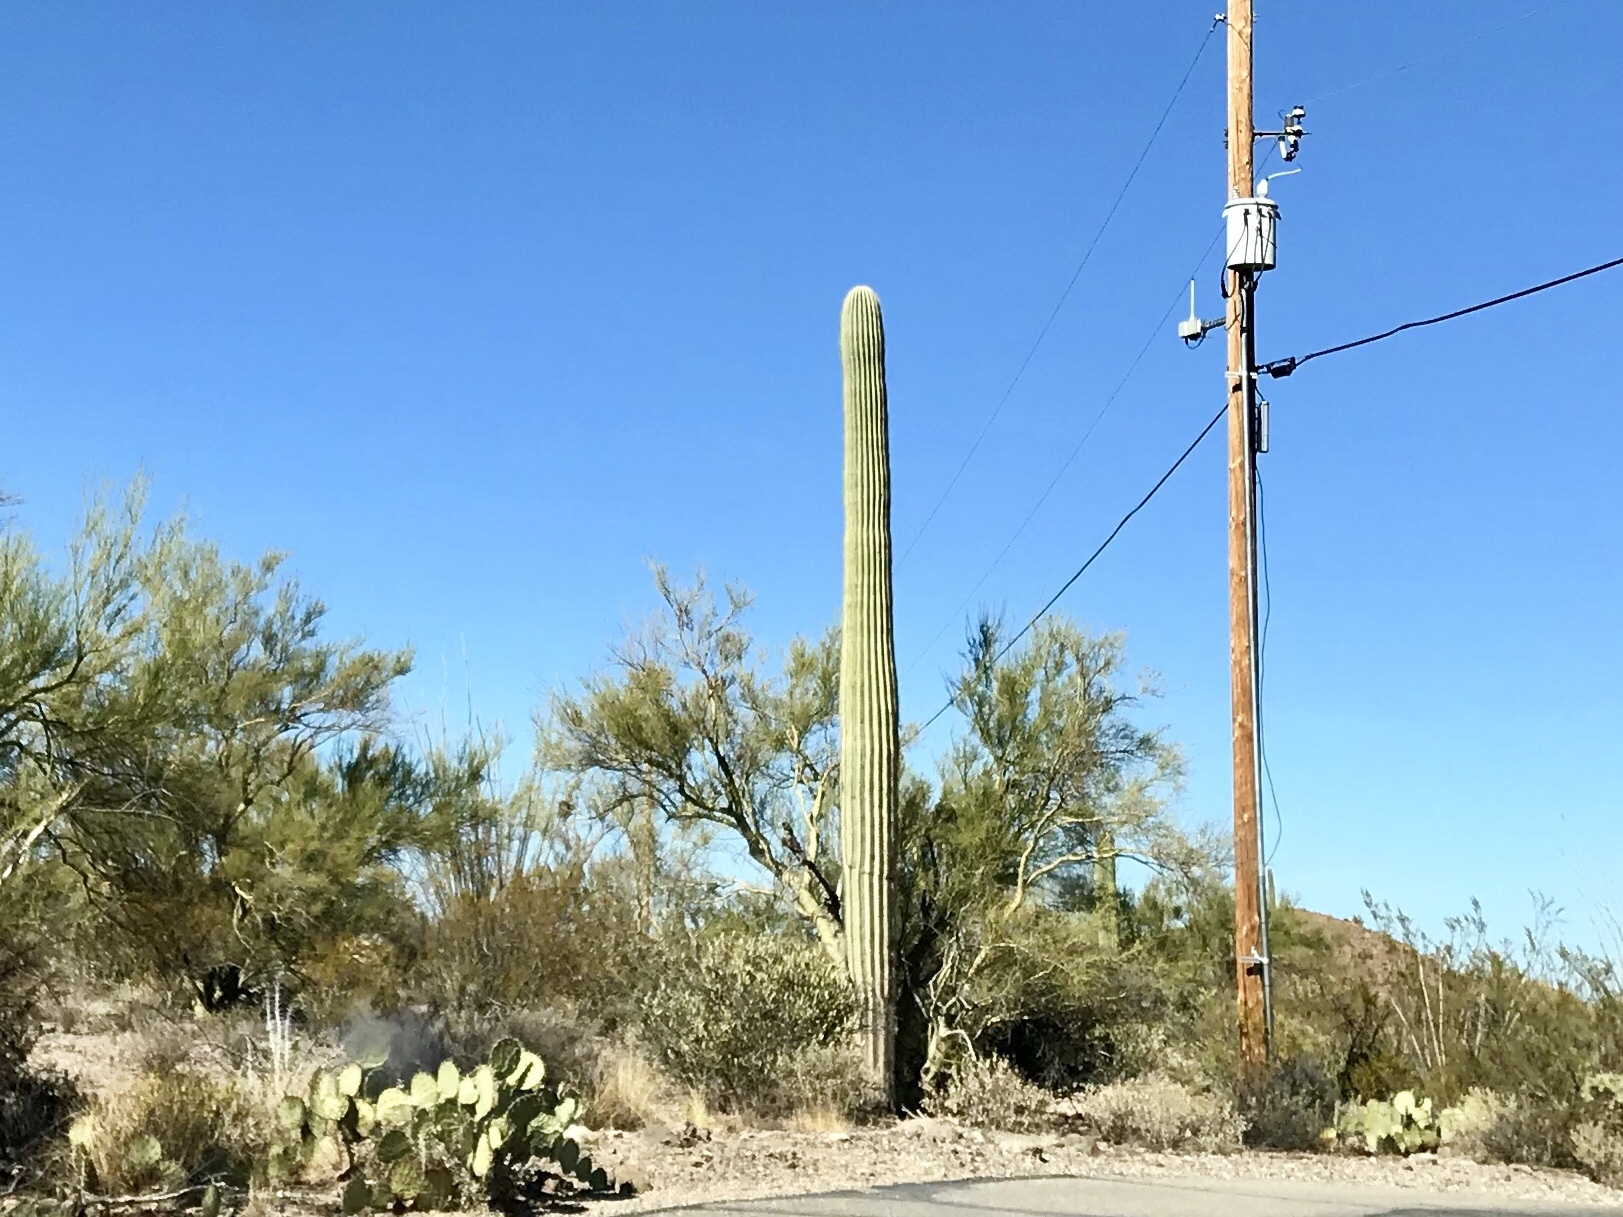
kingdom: Plantae
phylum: Tracheophyta
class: Magnoliopsida
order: Caryophyllales
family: Cactaceae
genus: Carnegiea
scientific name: Carnegiea gigantea
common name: Saguaro
